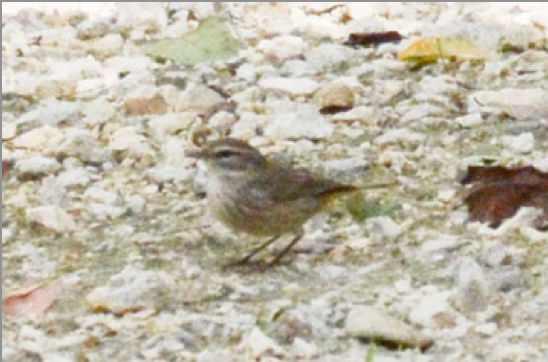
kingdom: Animalia
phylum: Chordata
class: Aves
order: Passeriformes
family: Parulidae
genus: Setophaga
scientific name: Setophaga palmarum
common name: Palm warbler
